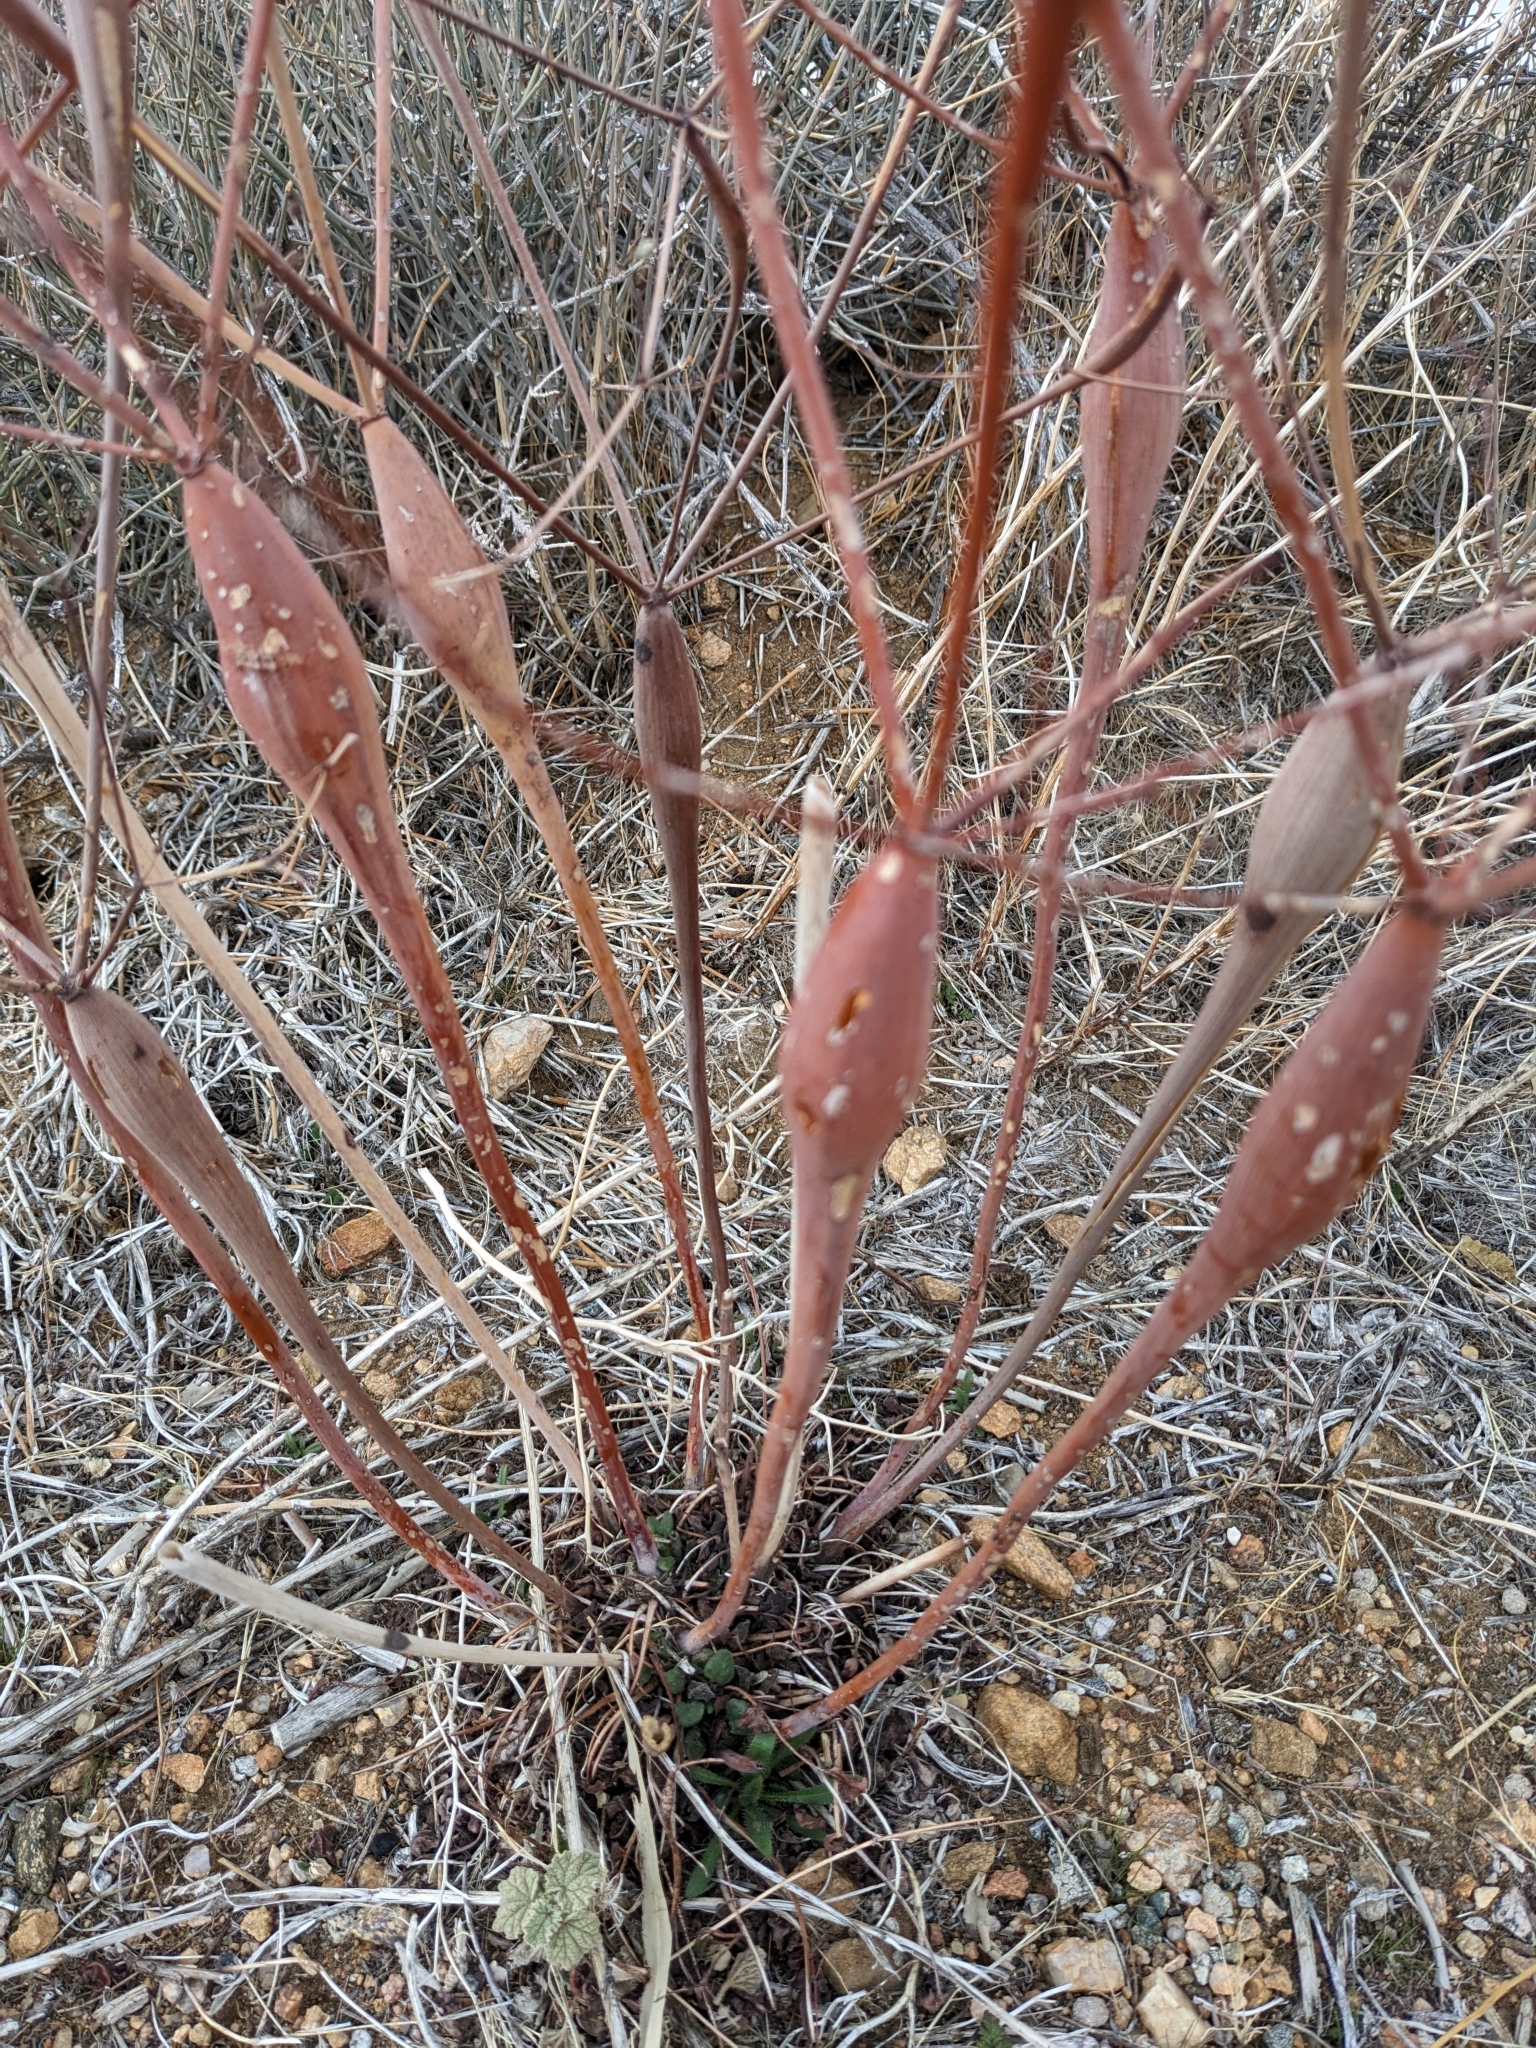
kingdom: Plantae
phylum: Tracheophyta
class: Magnoliopsida
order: Caryophyllales
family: Polygonaceae
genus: Eriogonum
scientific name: Eriogonum inflatum
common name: Desert trumpet
